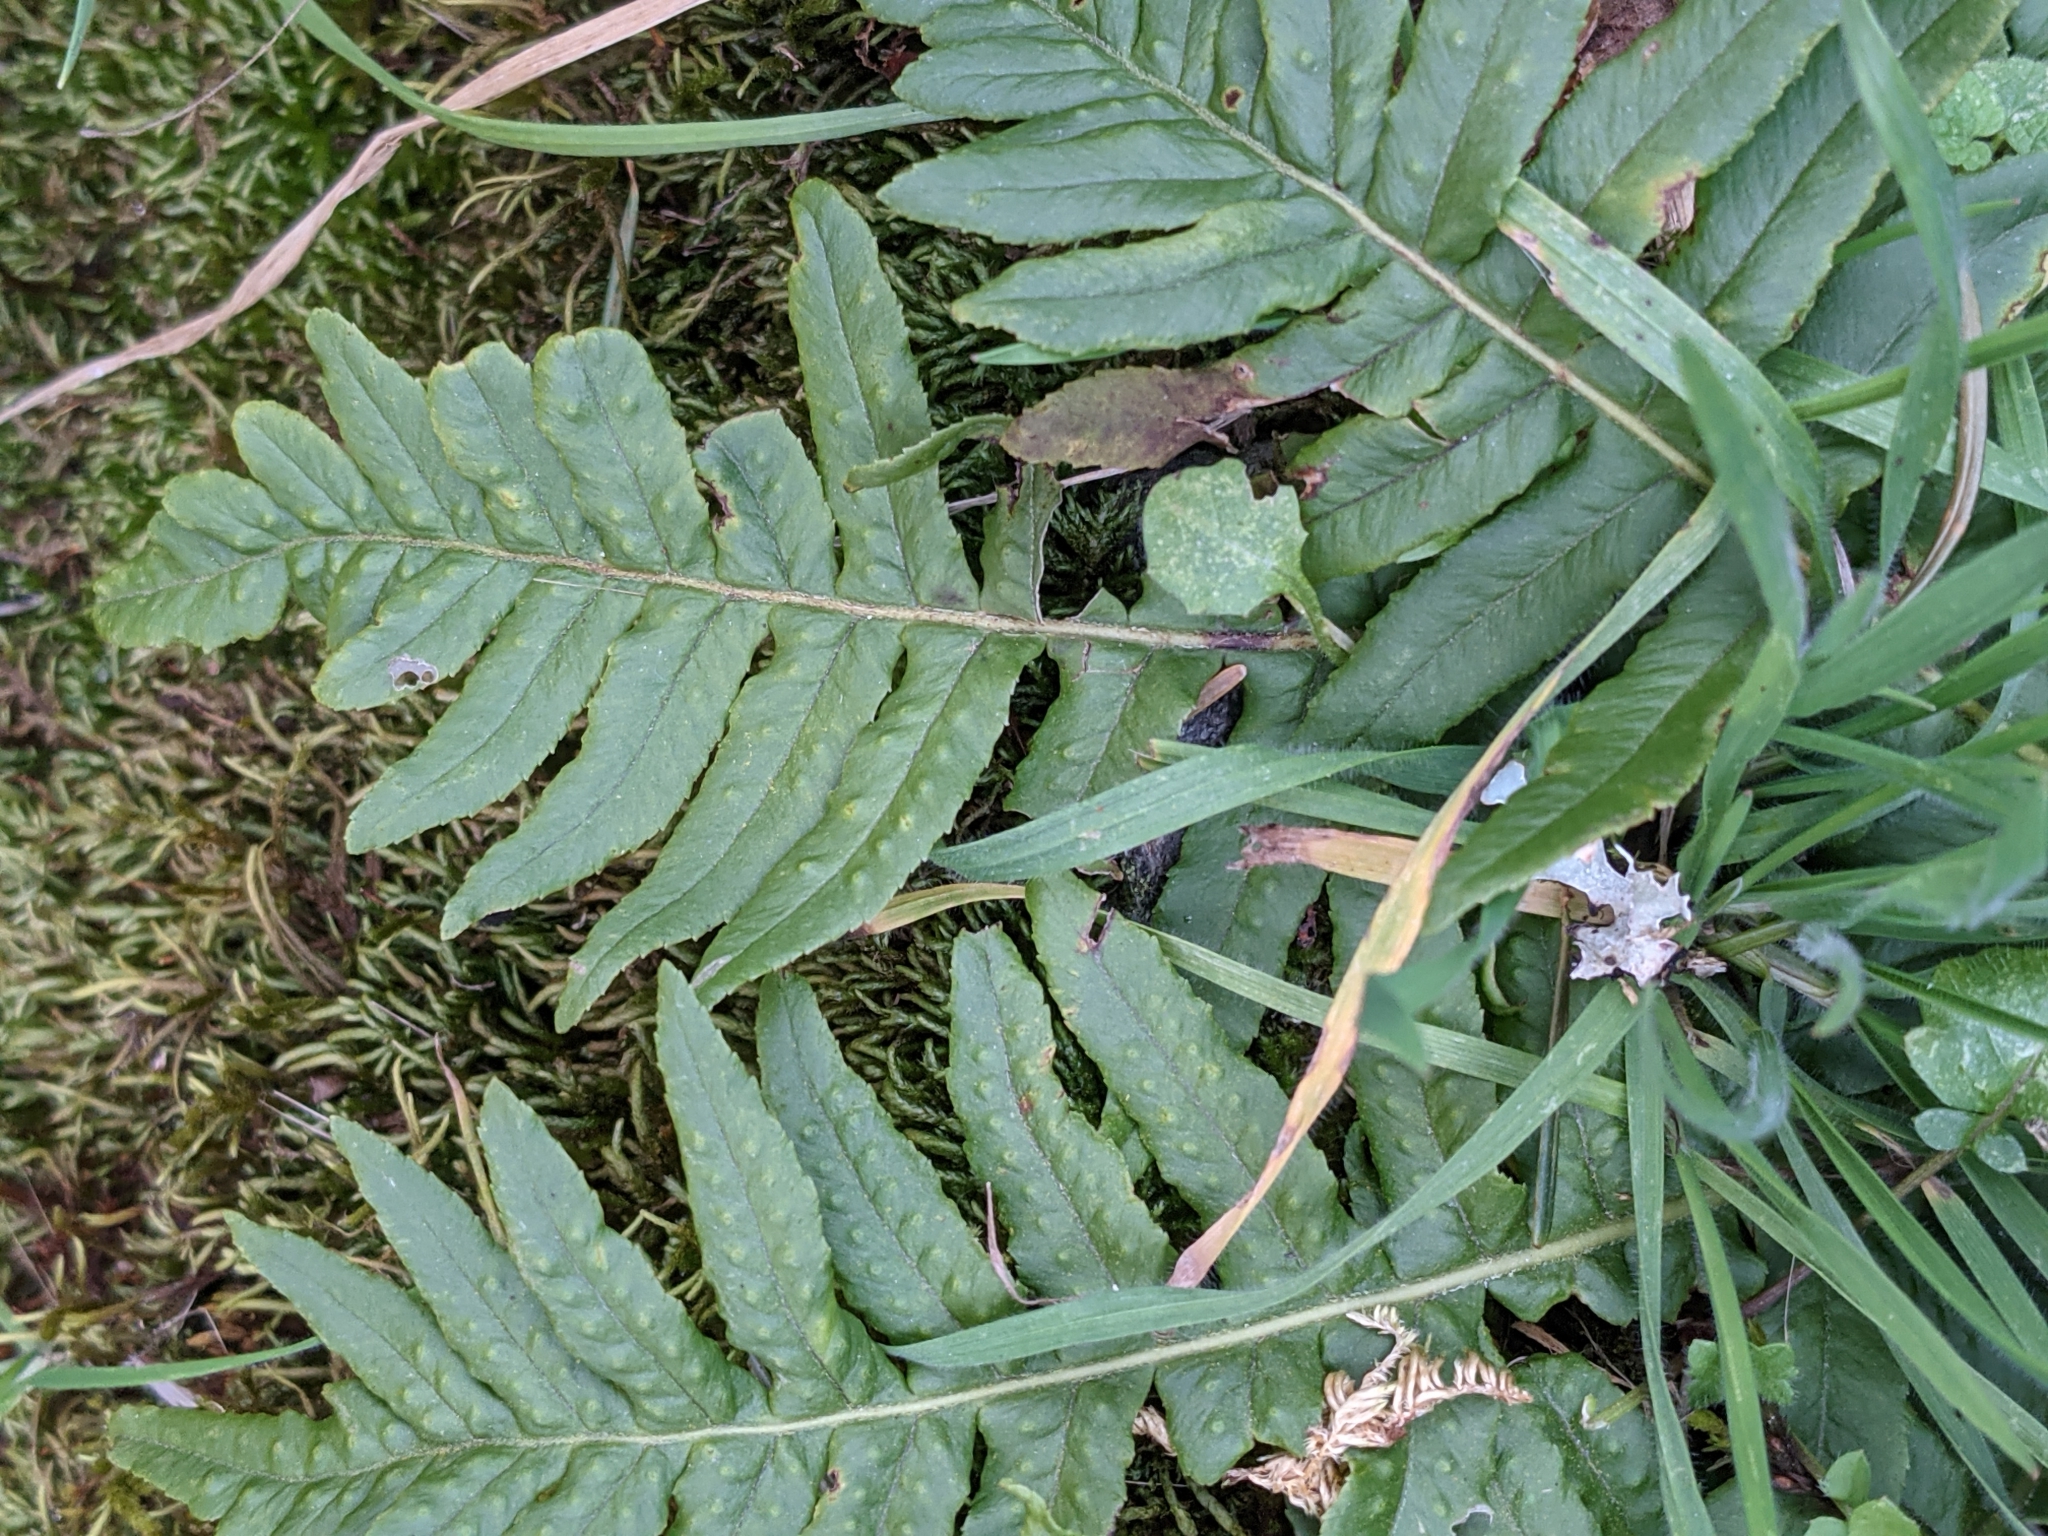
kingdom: Plantae
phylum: Tracheophyta
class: Polypodiopsida
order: Polypodiales
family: Polypodiaceae
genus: Polypodium
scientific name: Polypodium glycyrrhiza
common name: Licorice fern
